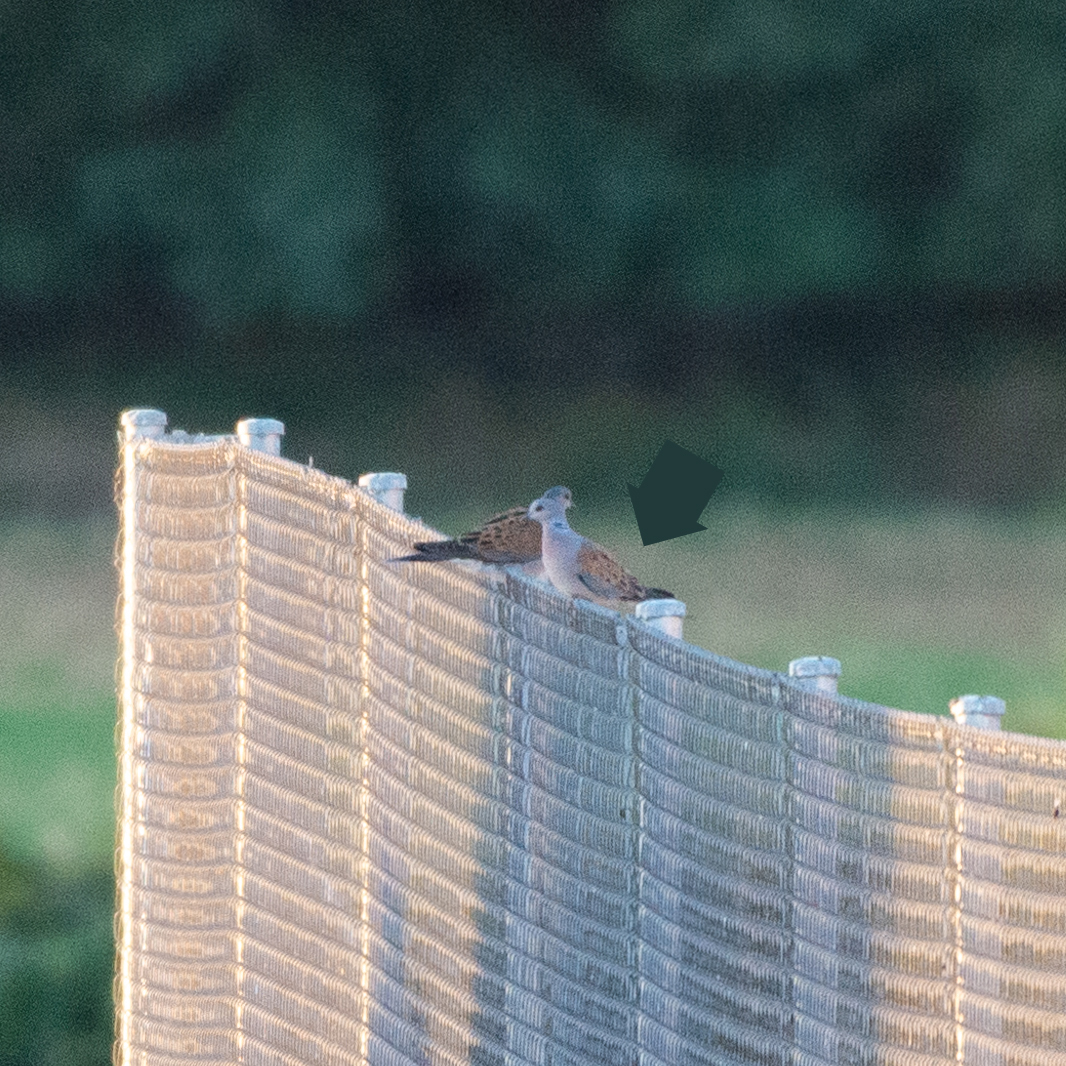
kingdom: Animalia
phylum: Chordata
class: Aves
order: Columbiformes
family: Columbidae
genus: Streptopelia
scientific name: Streptopelia turtur
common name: European turtle dove
